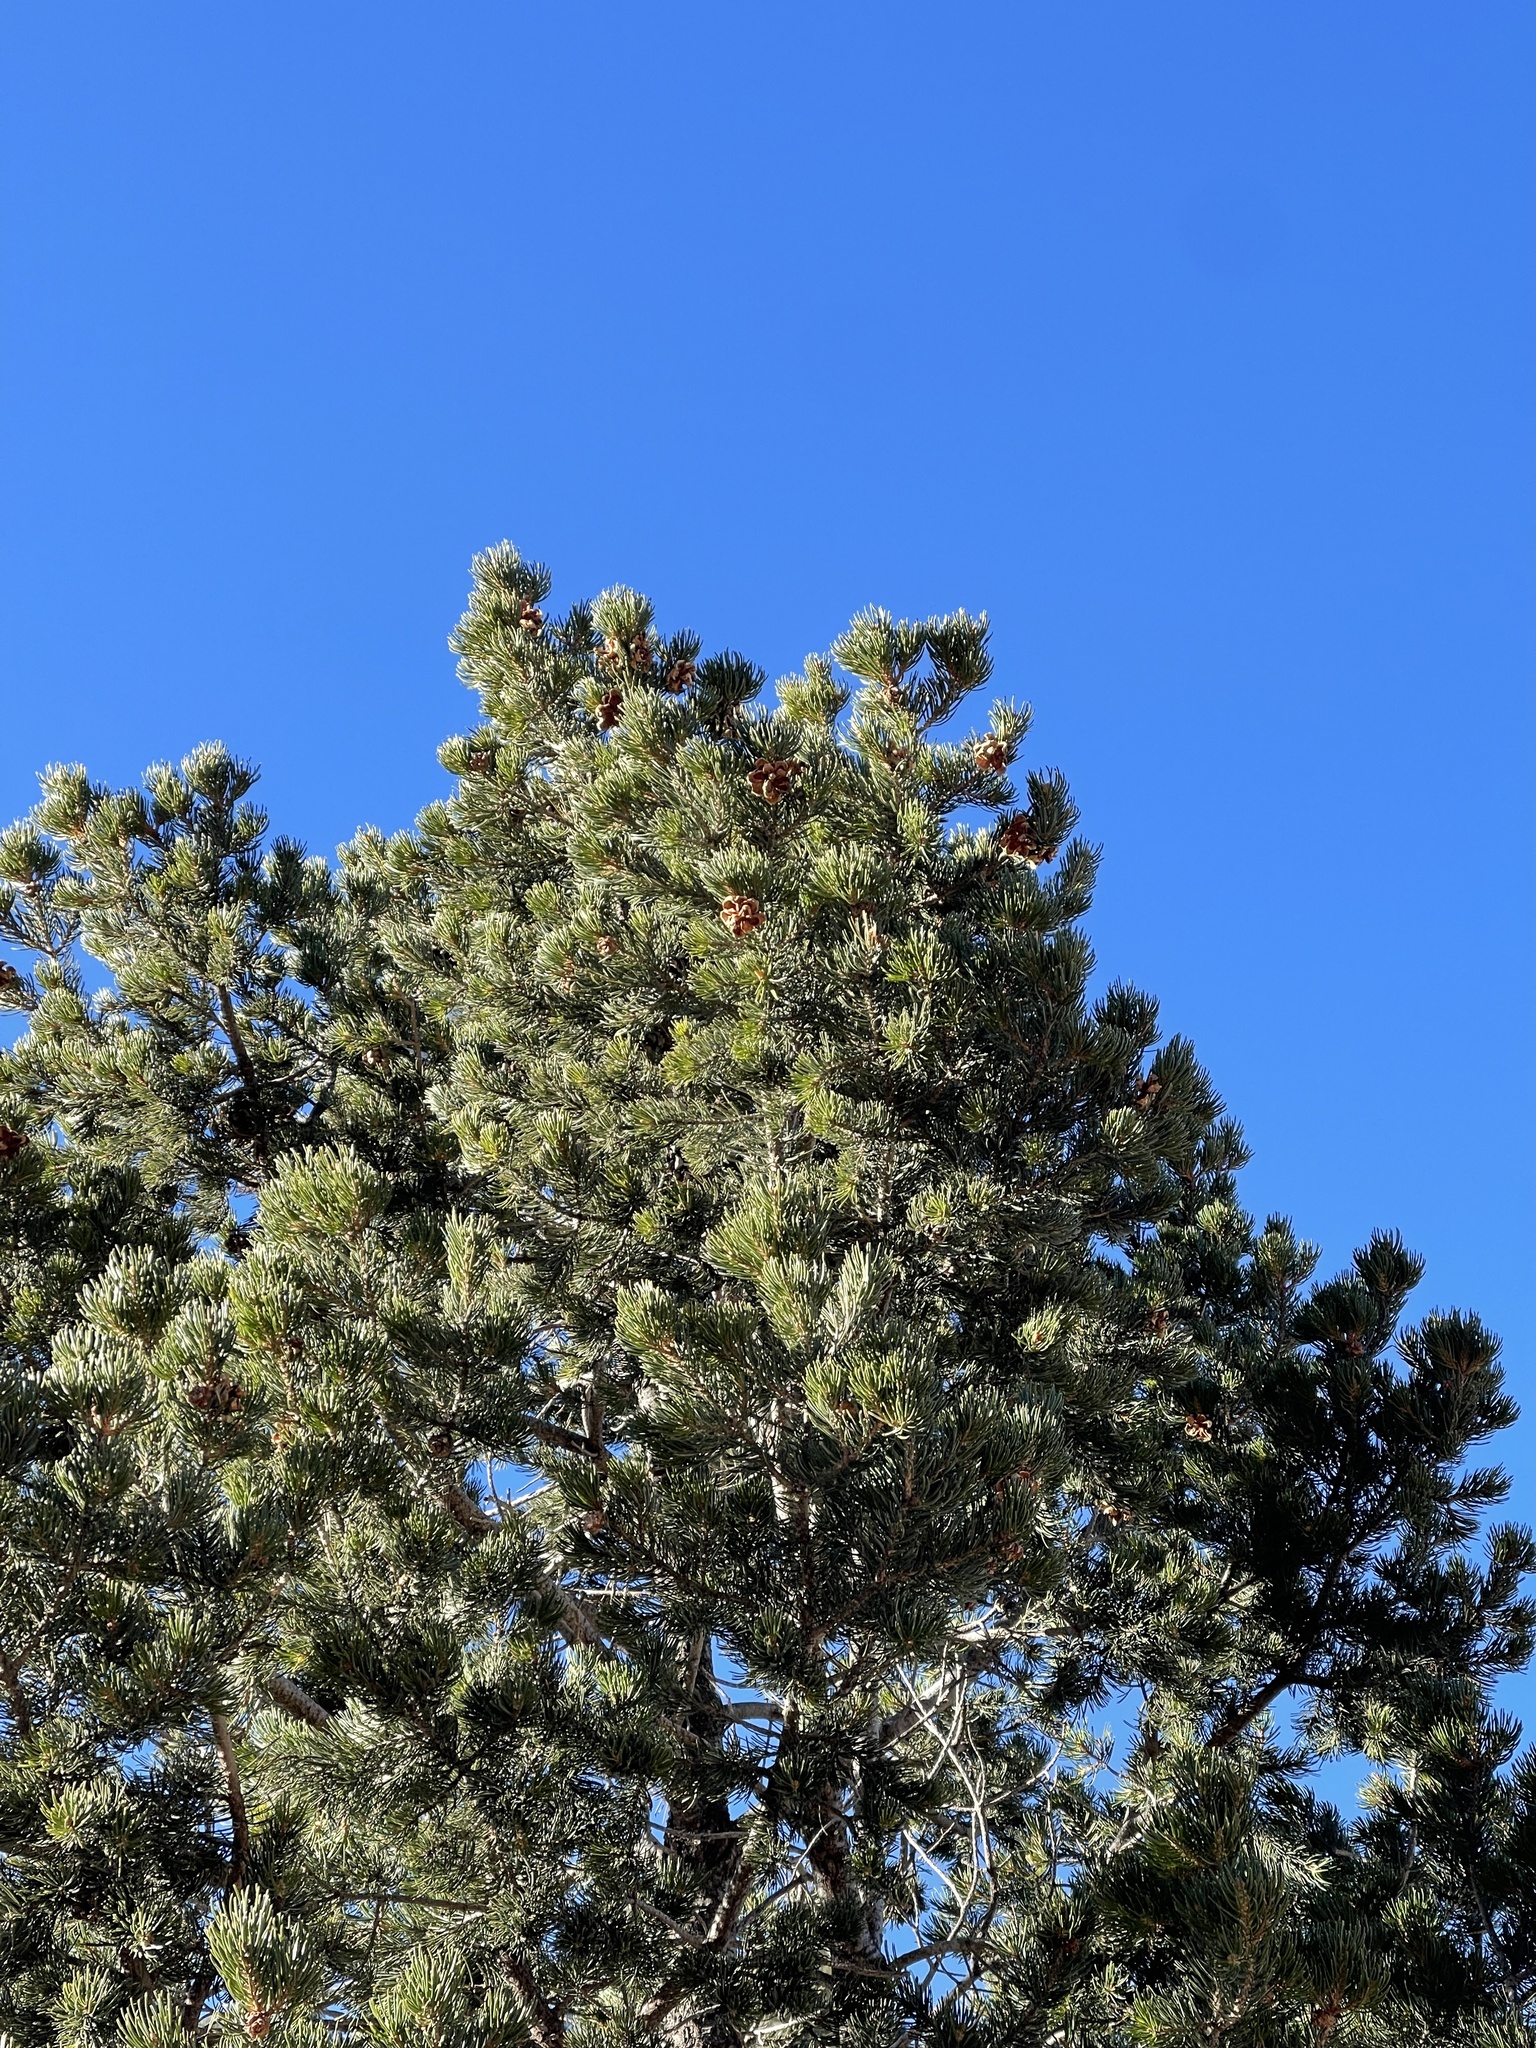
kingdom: Plantae
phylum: Tracheophyta
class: Pinopsida
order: Pinales
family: Pinaceae
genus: Pinus
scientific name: Pinus edulis
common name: Colorado pinyon
